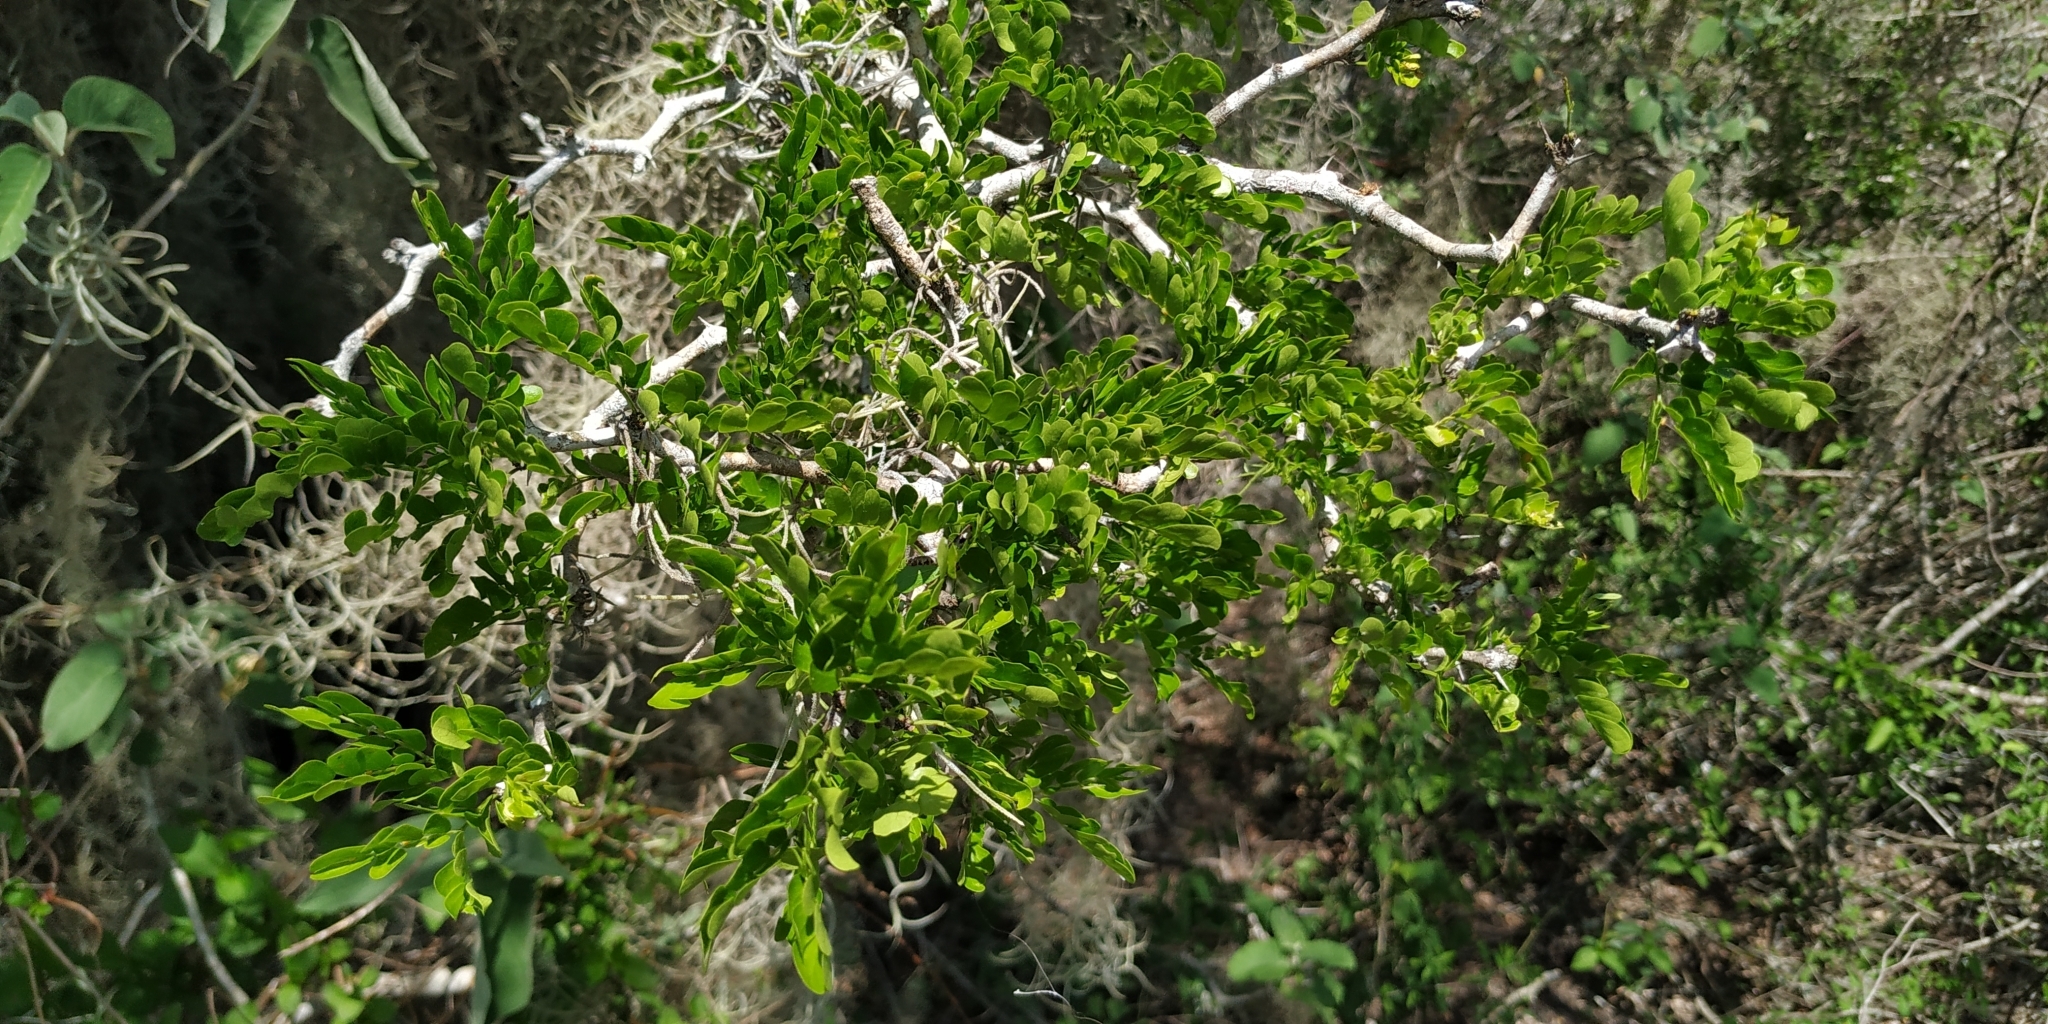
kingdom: Plantae
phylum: Tracheophyta
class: Magnoliopsida
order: Fabales
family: Fabaceae
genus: Ebenopsis
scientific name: Ebenopsis ebano
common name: Ebony blackbead
